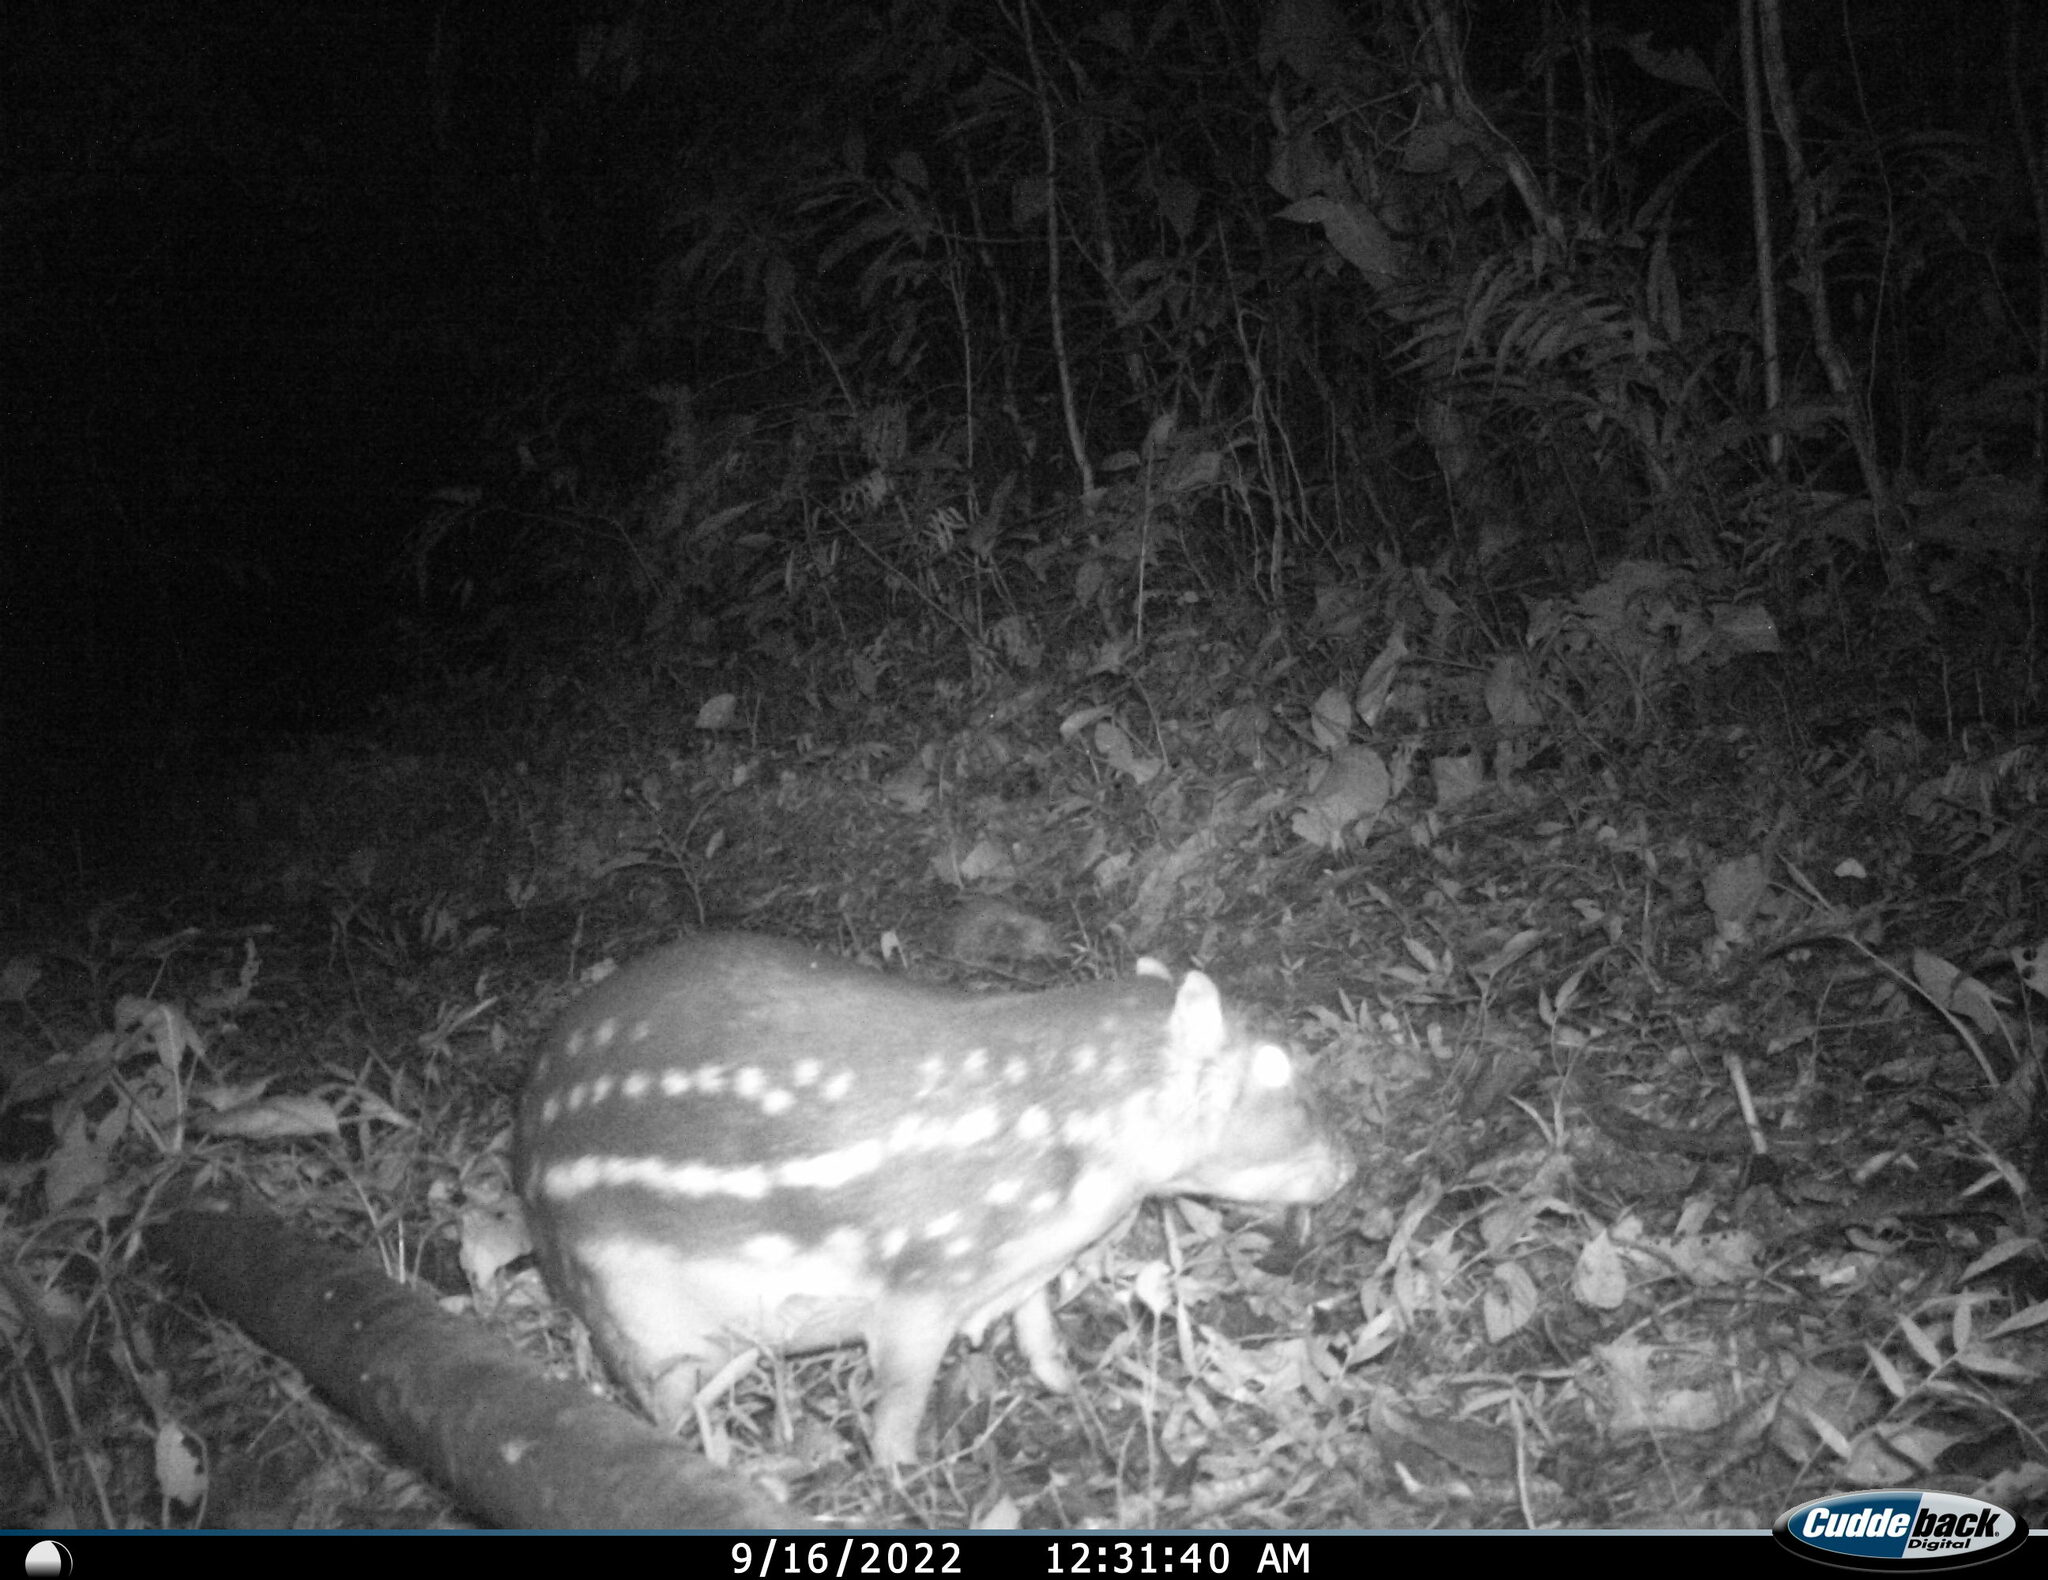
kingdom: Animalia
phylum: Chordata
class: Mammalia
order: Rodentia
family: Cuniculidae
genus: Cuniculus
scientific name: Cuniculus paca
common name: Lowland paca
